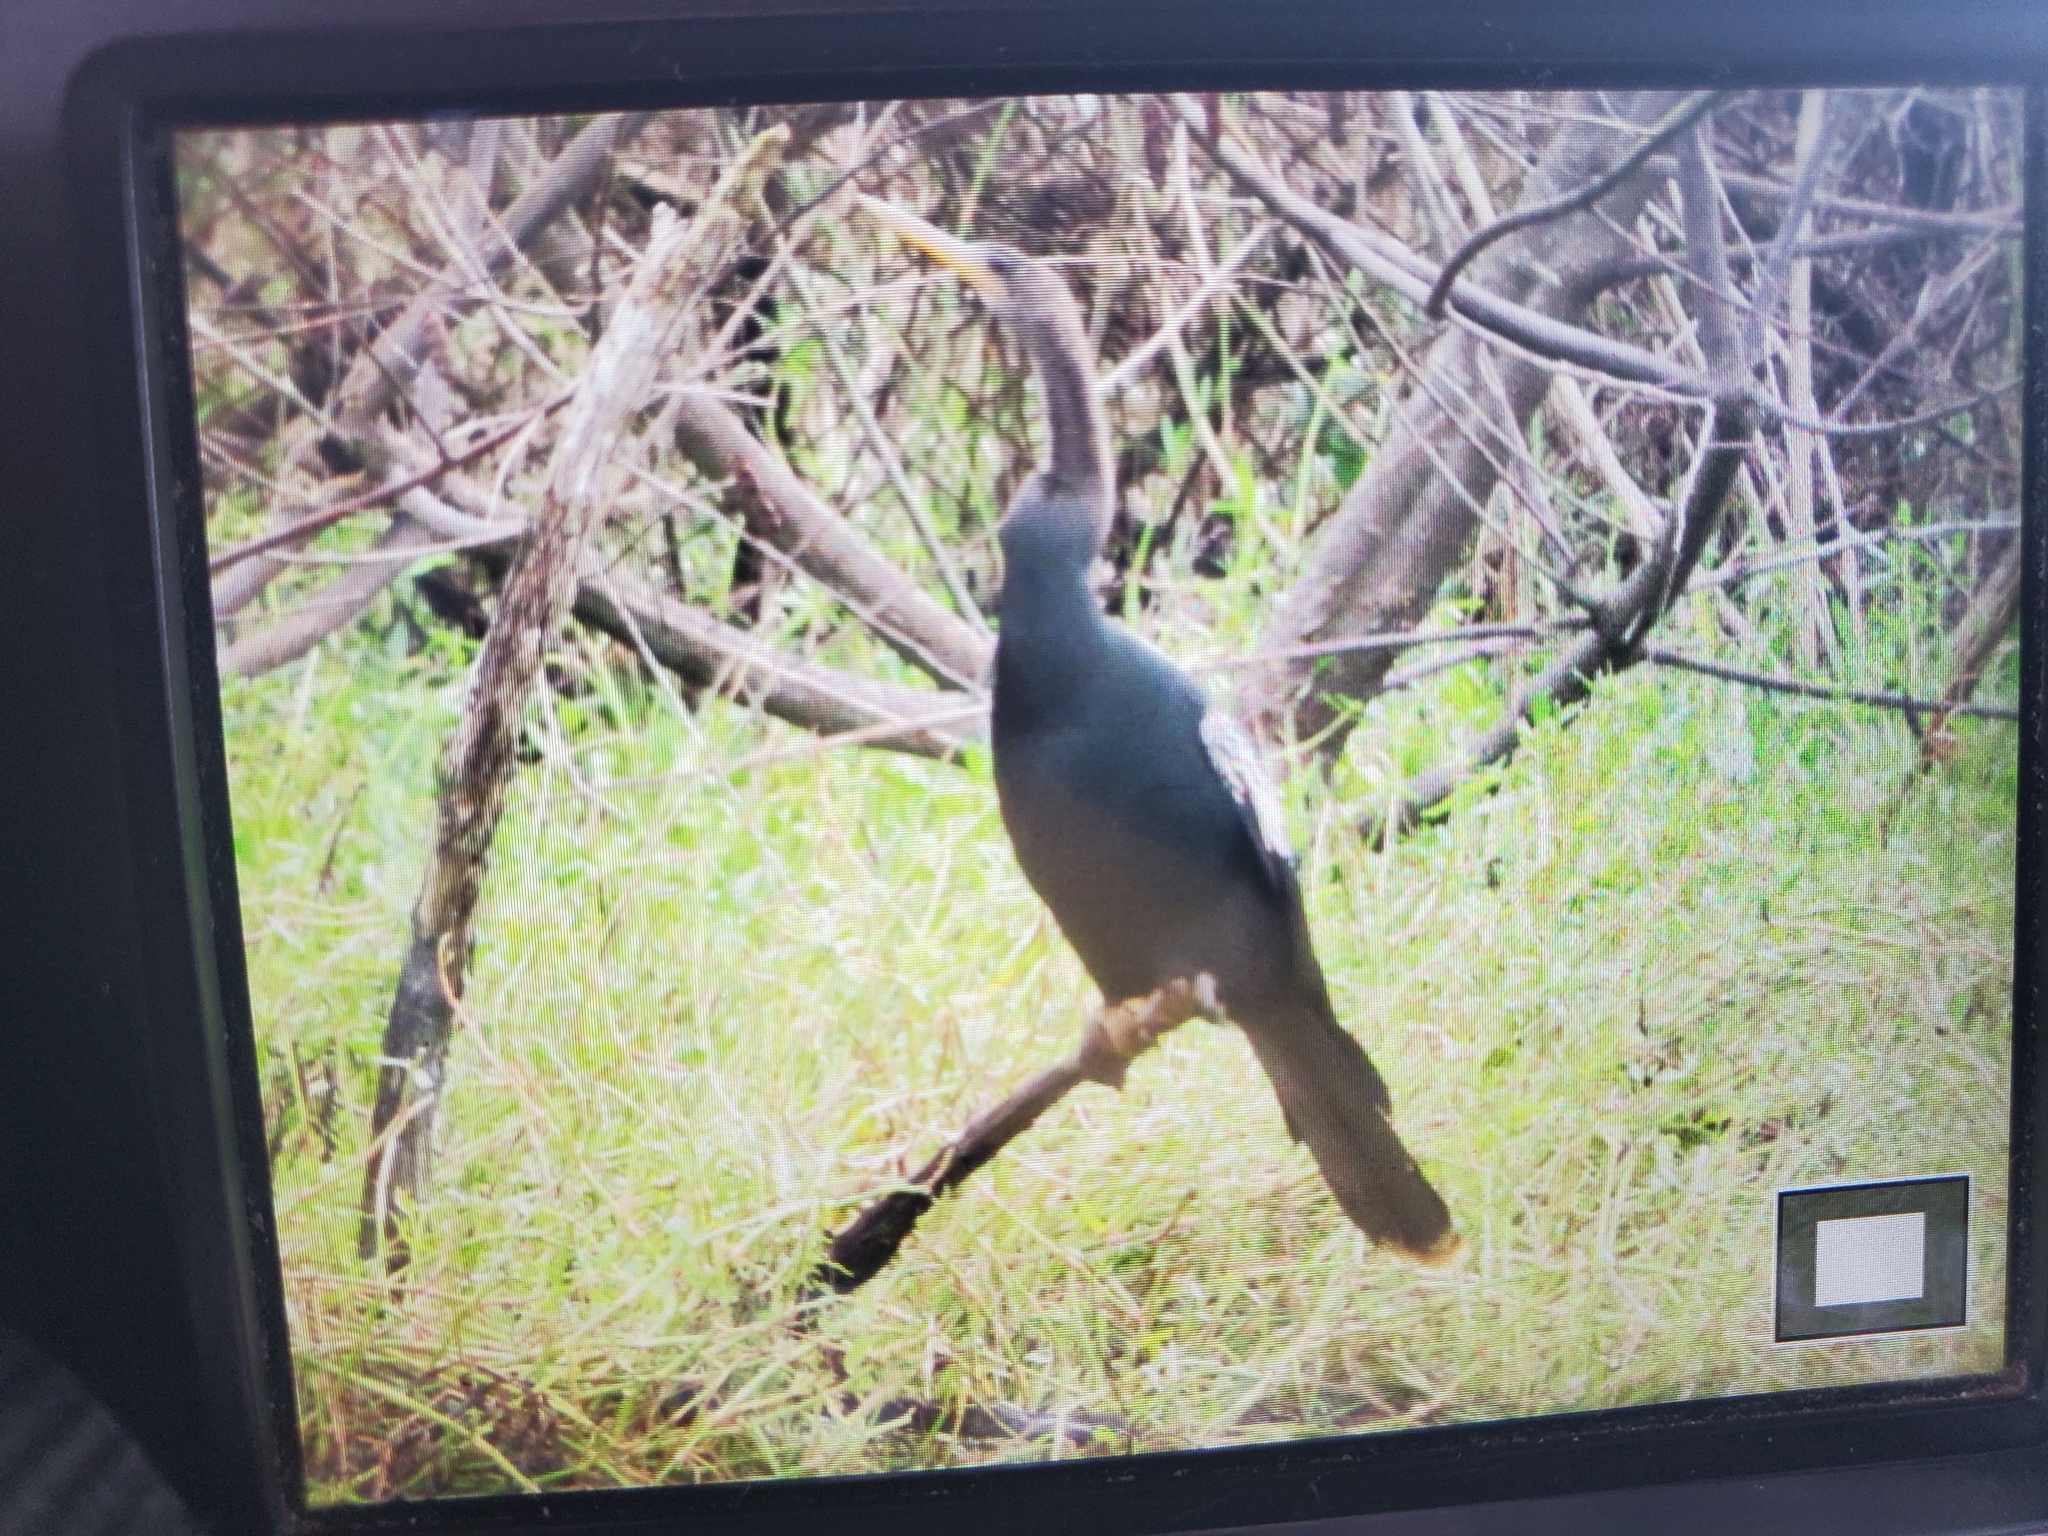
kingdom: Animalia
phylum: Chordata
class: Aves
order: Suliformes
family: Anhingidae
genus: Anhinga
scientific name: Anhinga anhinga
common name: Anhinga
